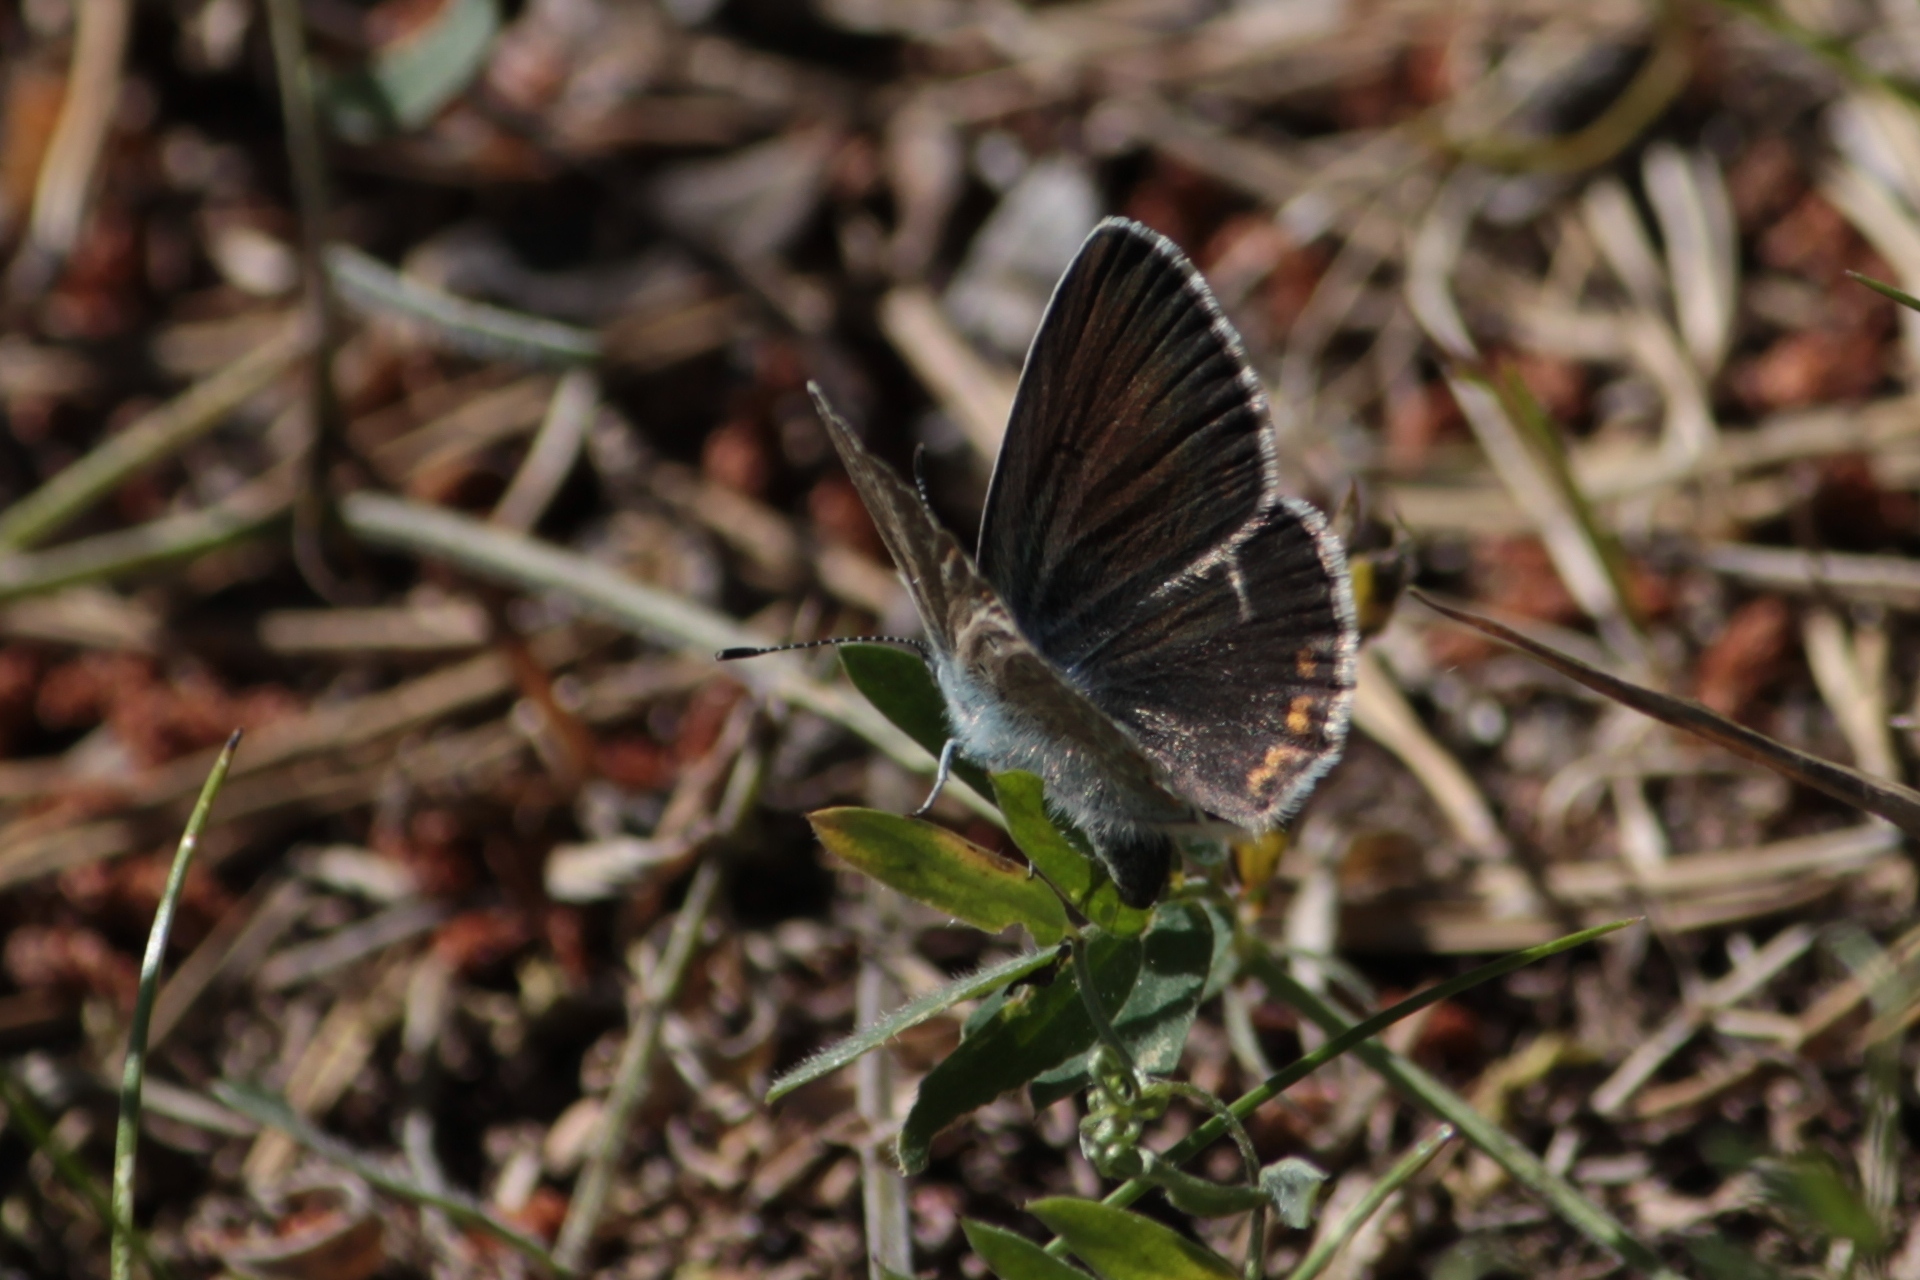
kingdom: Animalia
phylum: Arthropoda
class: Insecta
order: Lepidoptera
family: Lycaenidae
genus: Plebejus
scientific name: Plebejus amanda
